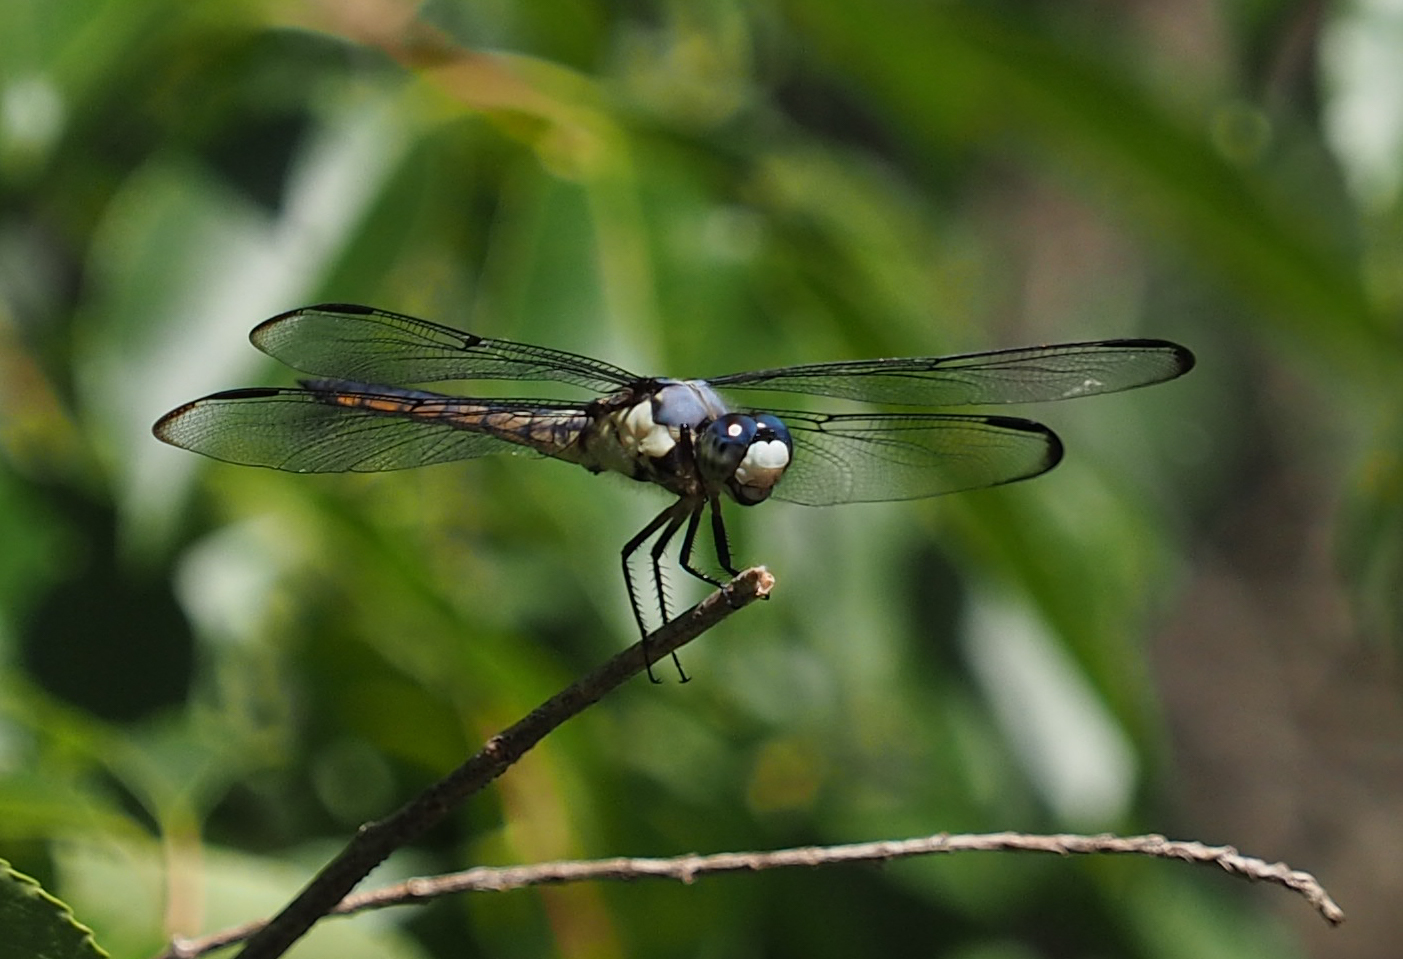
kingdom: Animalia
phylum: Arthropoda
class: Insecta
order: Odonata
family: Libellulidae
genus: Libellula
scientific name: Libellula vibrans
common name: Great blue skimmer
